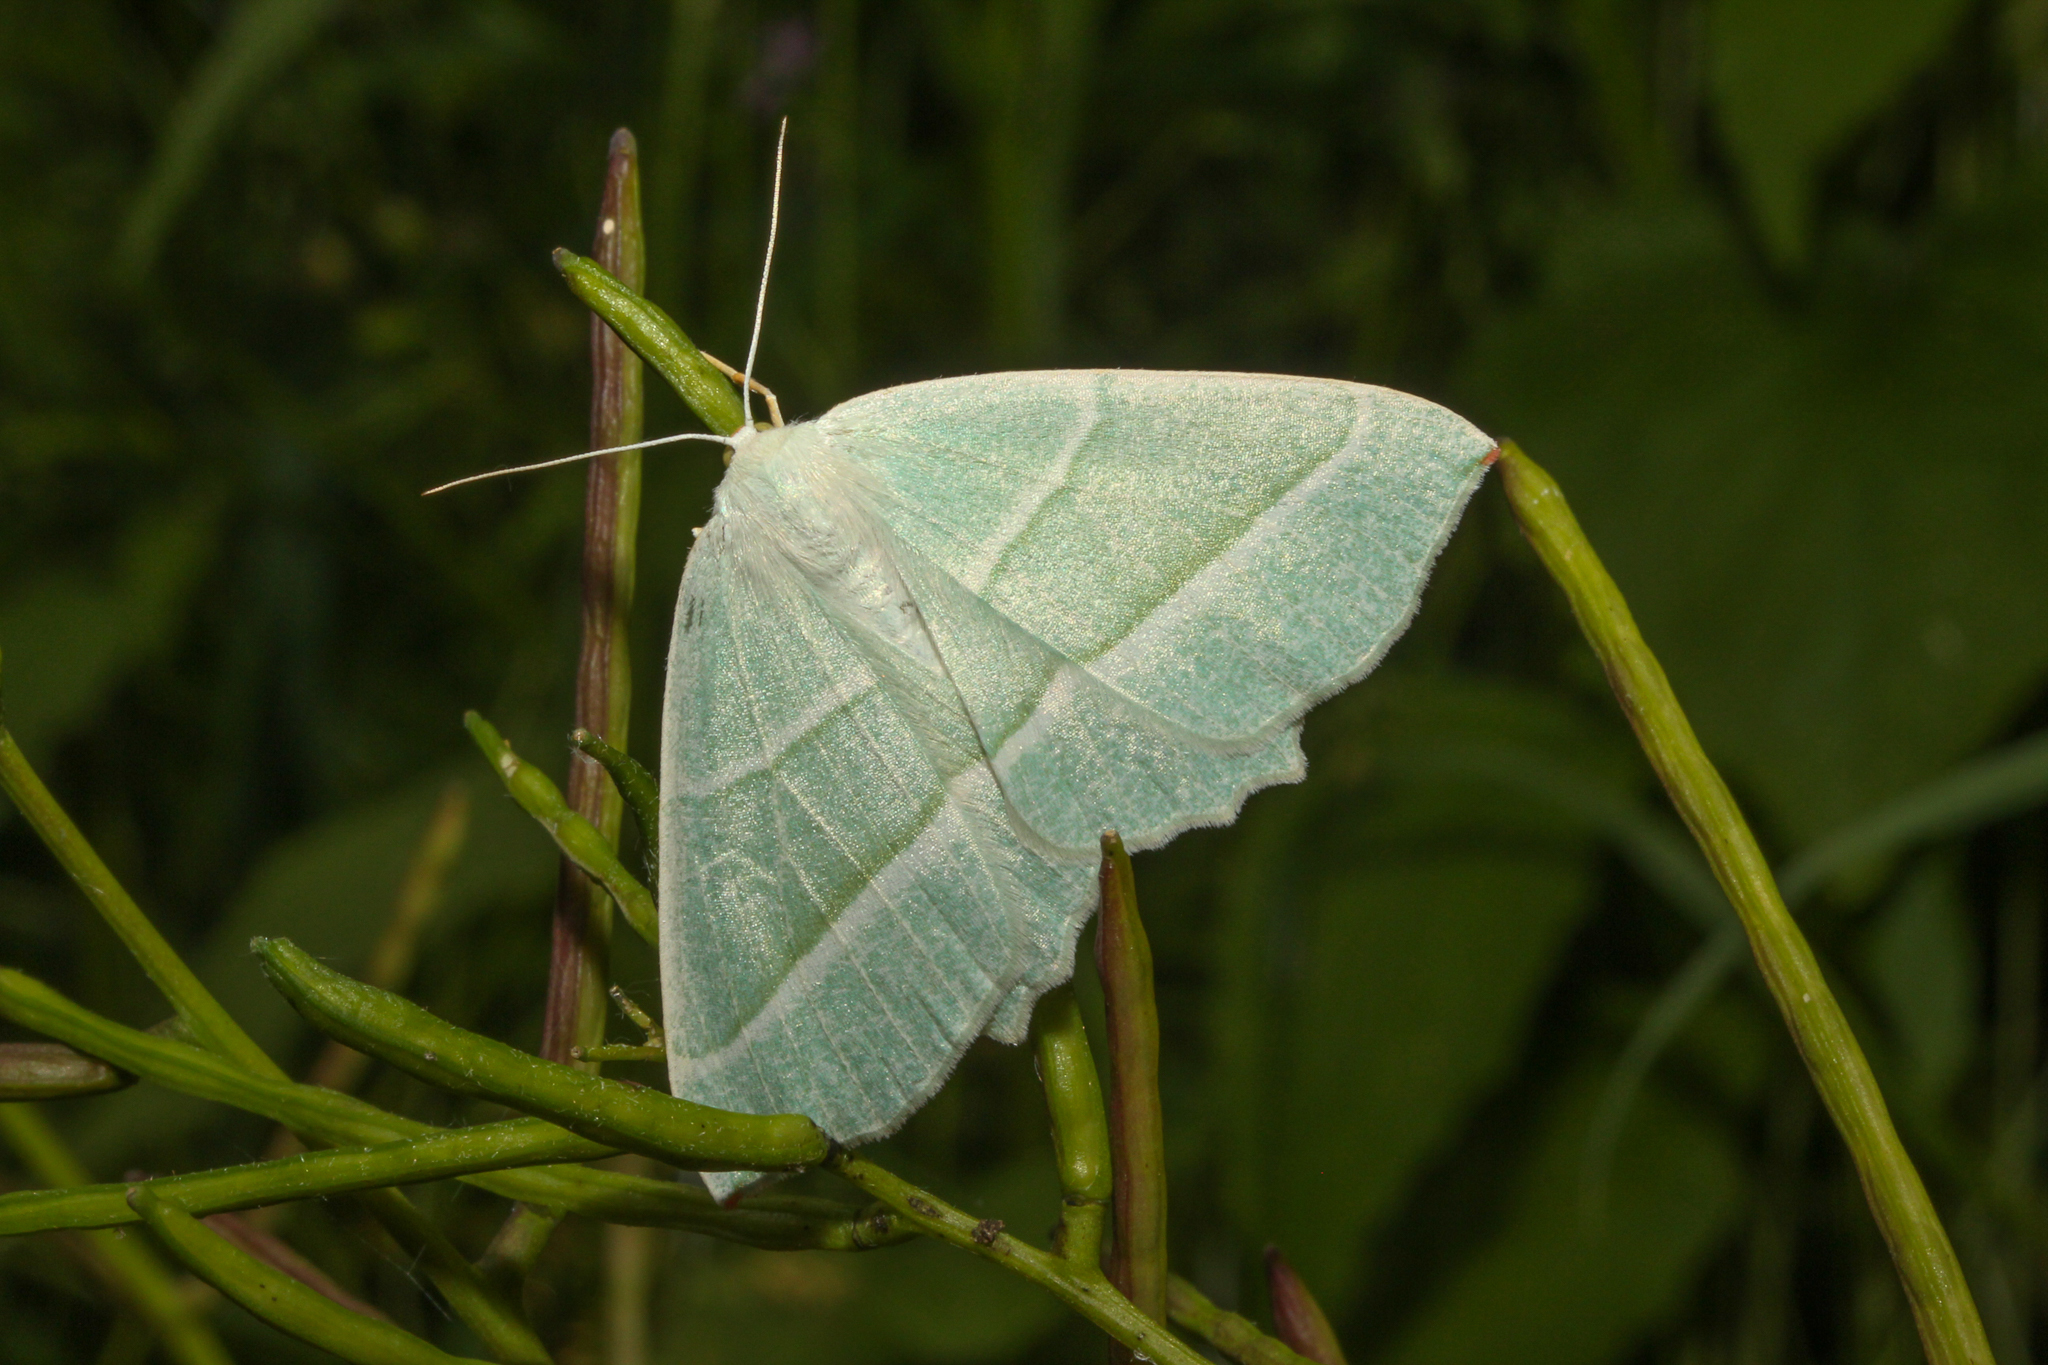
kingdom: Animalia
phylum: Arthropoda
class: Insecta
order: Lepidoptera
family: Geometridae
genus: Campaea
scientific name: Campaea margaritaria
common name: Light emerald
